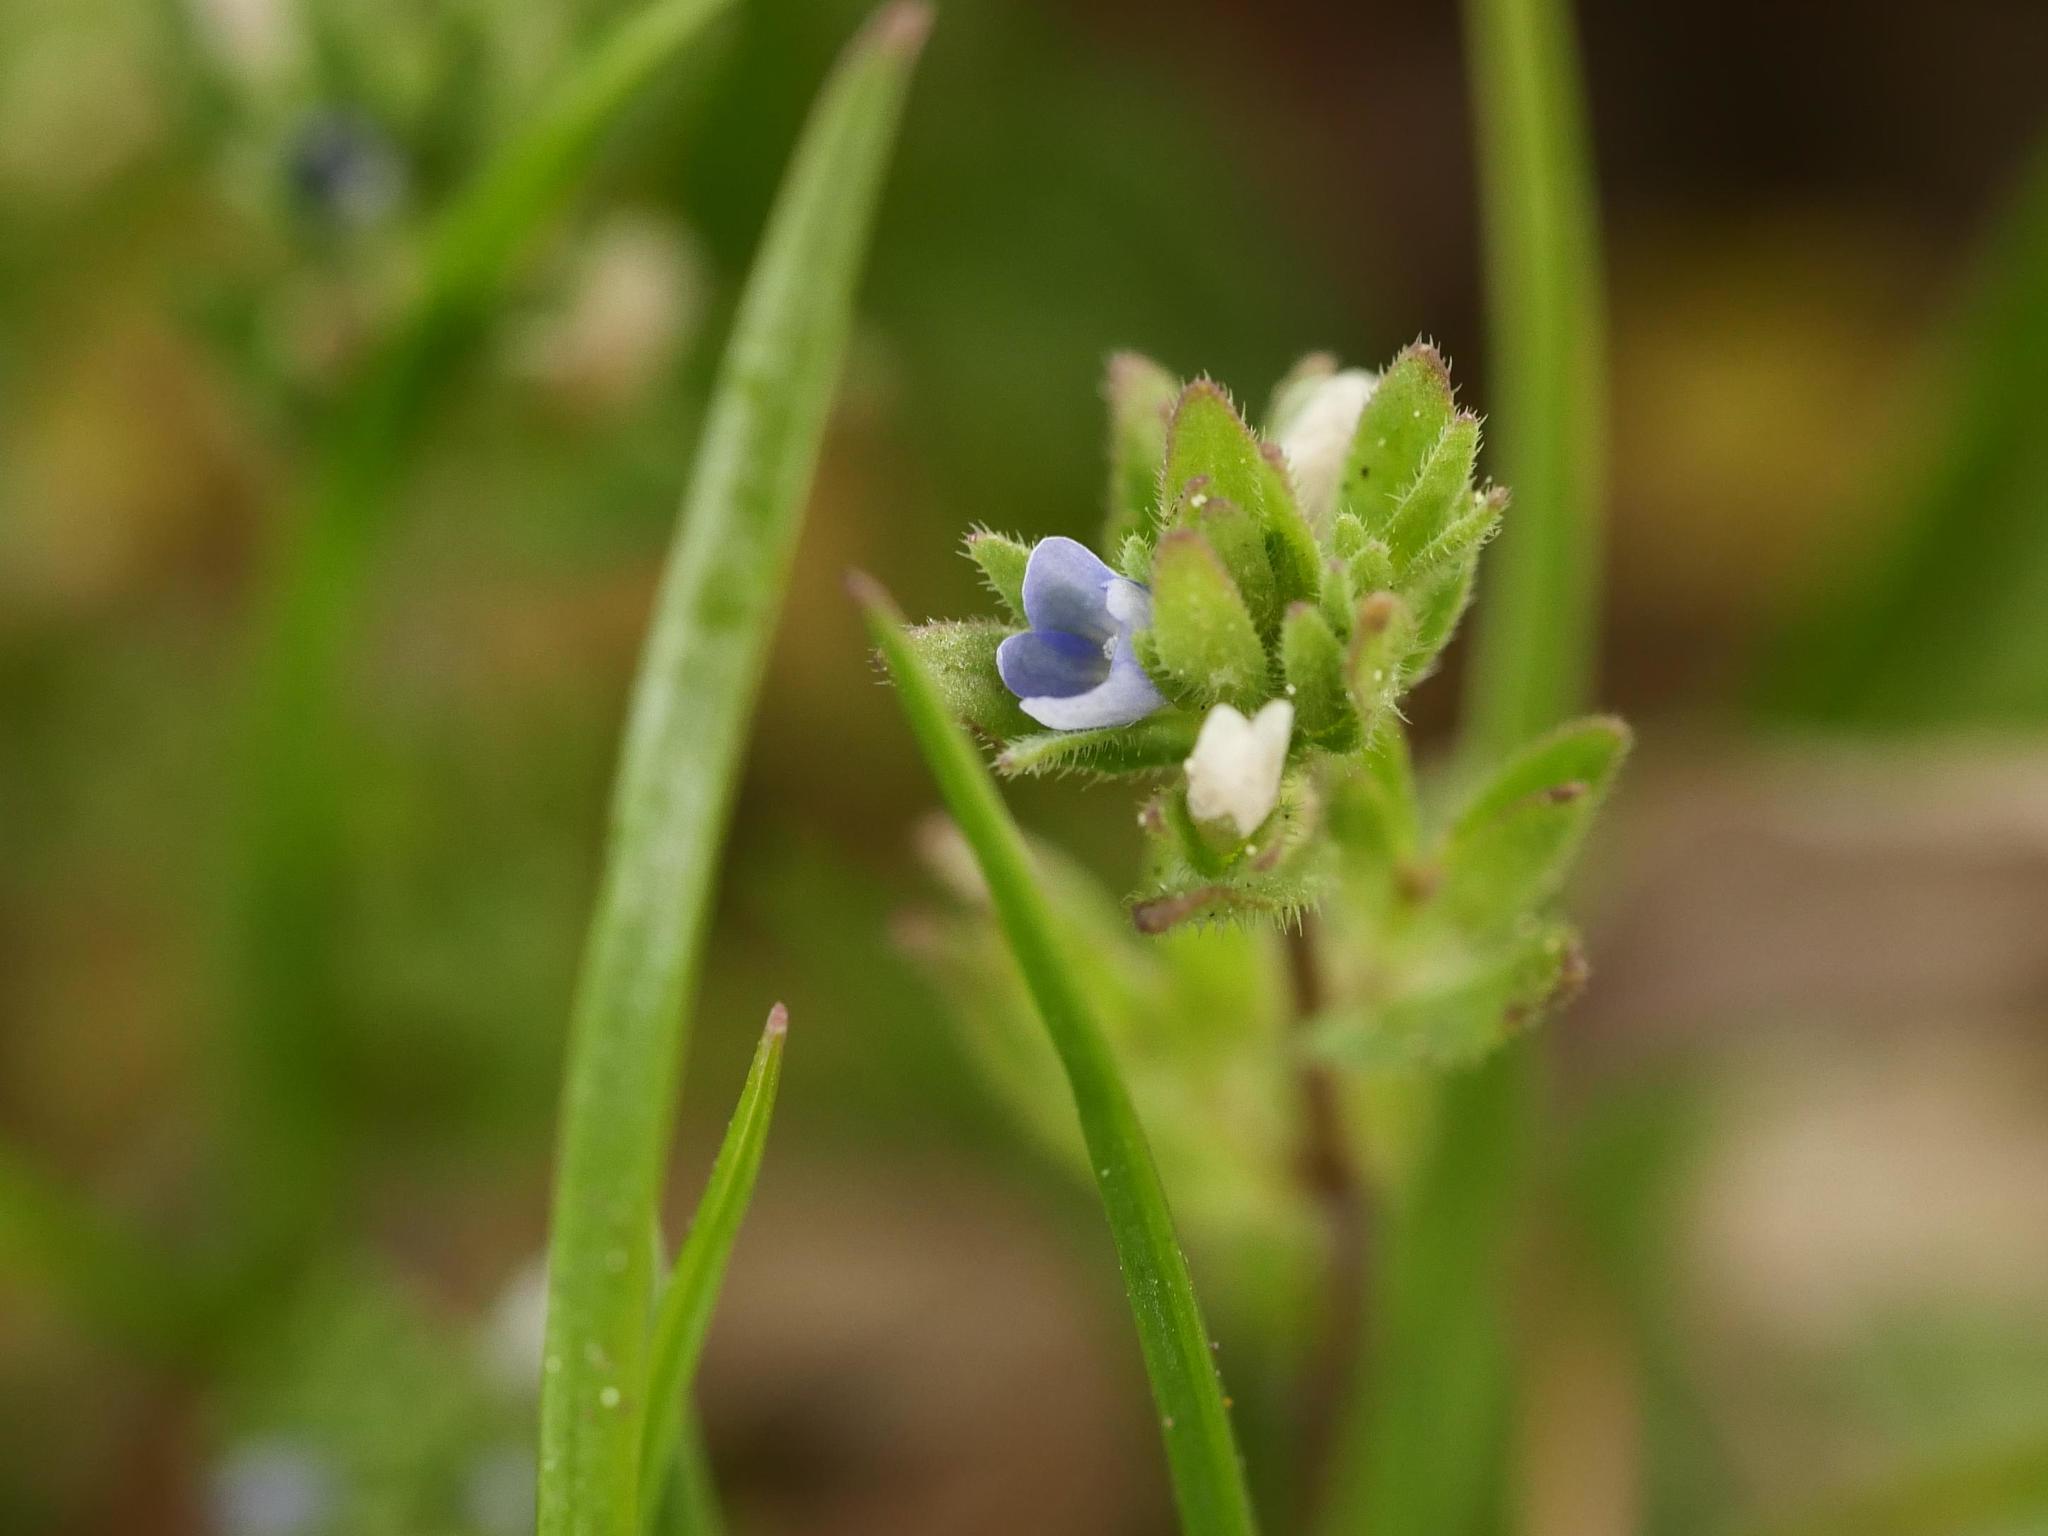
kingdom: Plantae
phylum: Tracheophyta
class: Magnoliopsida
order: Lamiales
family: Plantaginaceae
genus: Veronica
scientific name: Veronica arvensis
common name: Corn speedwell
